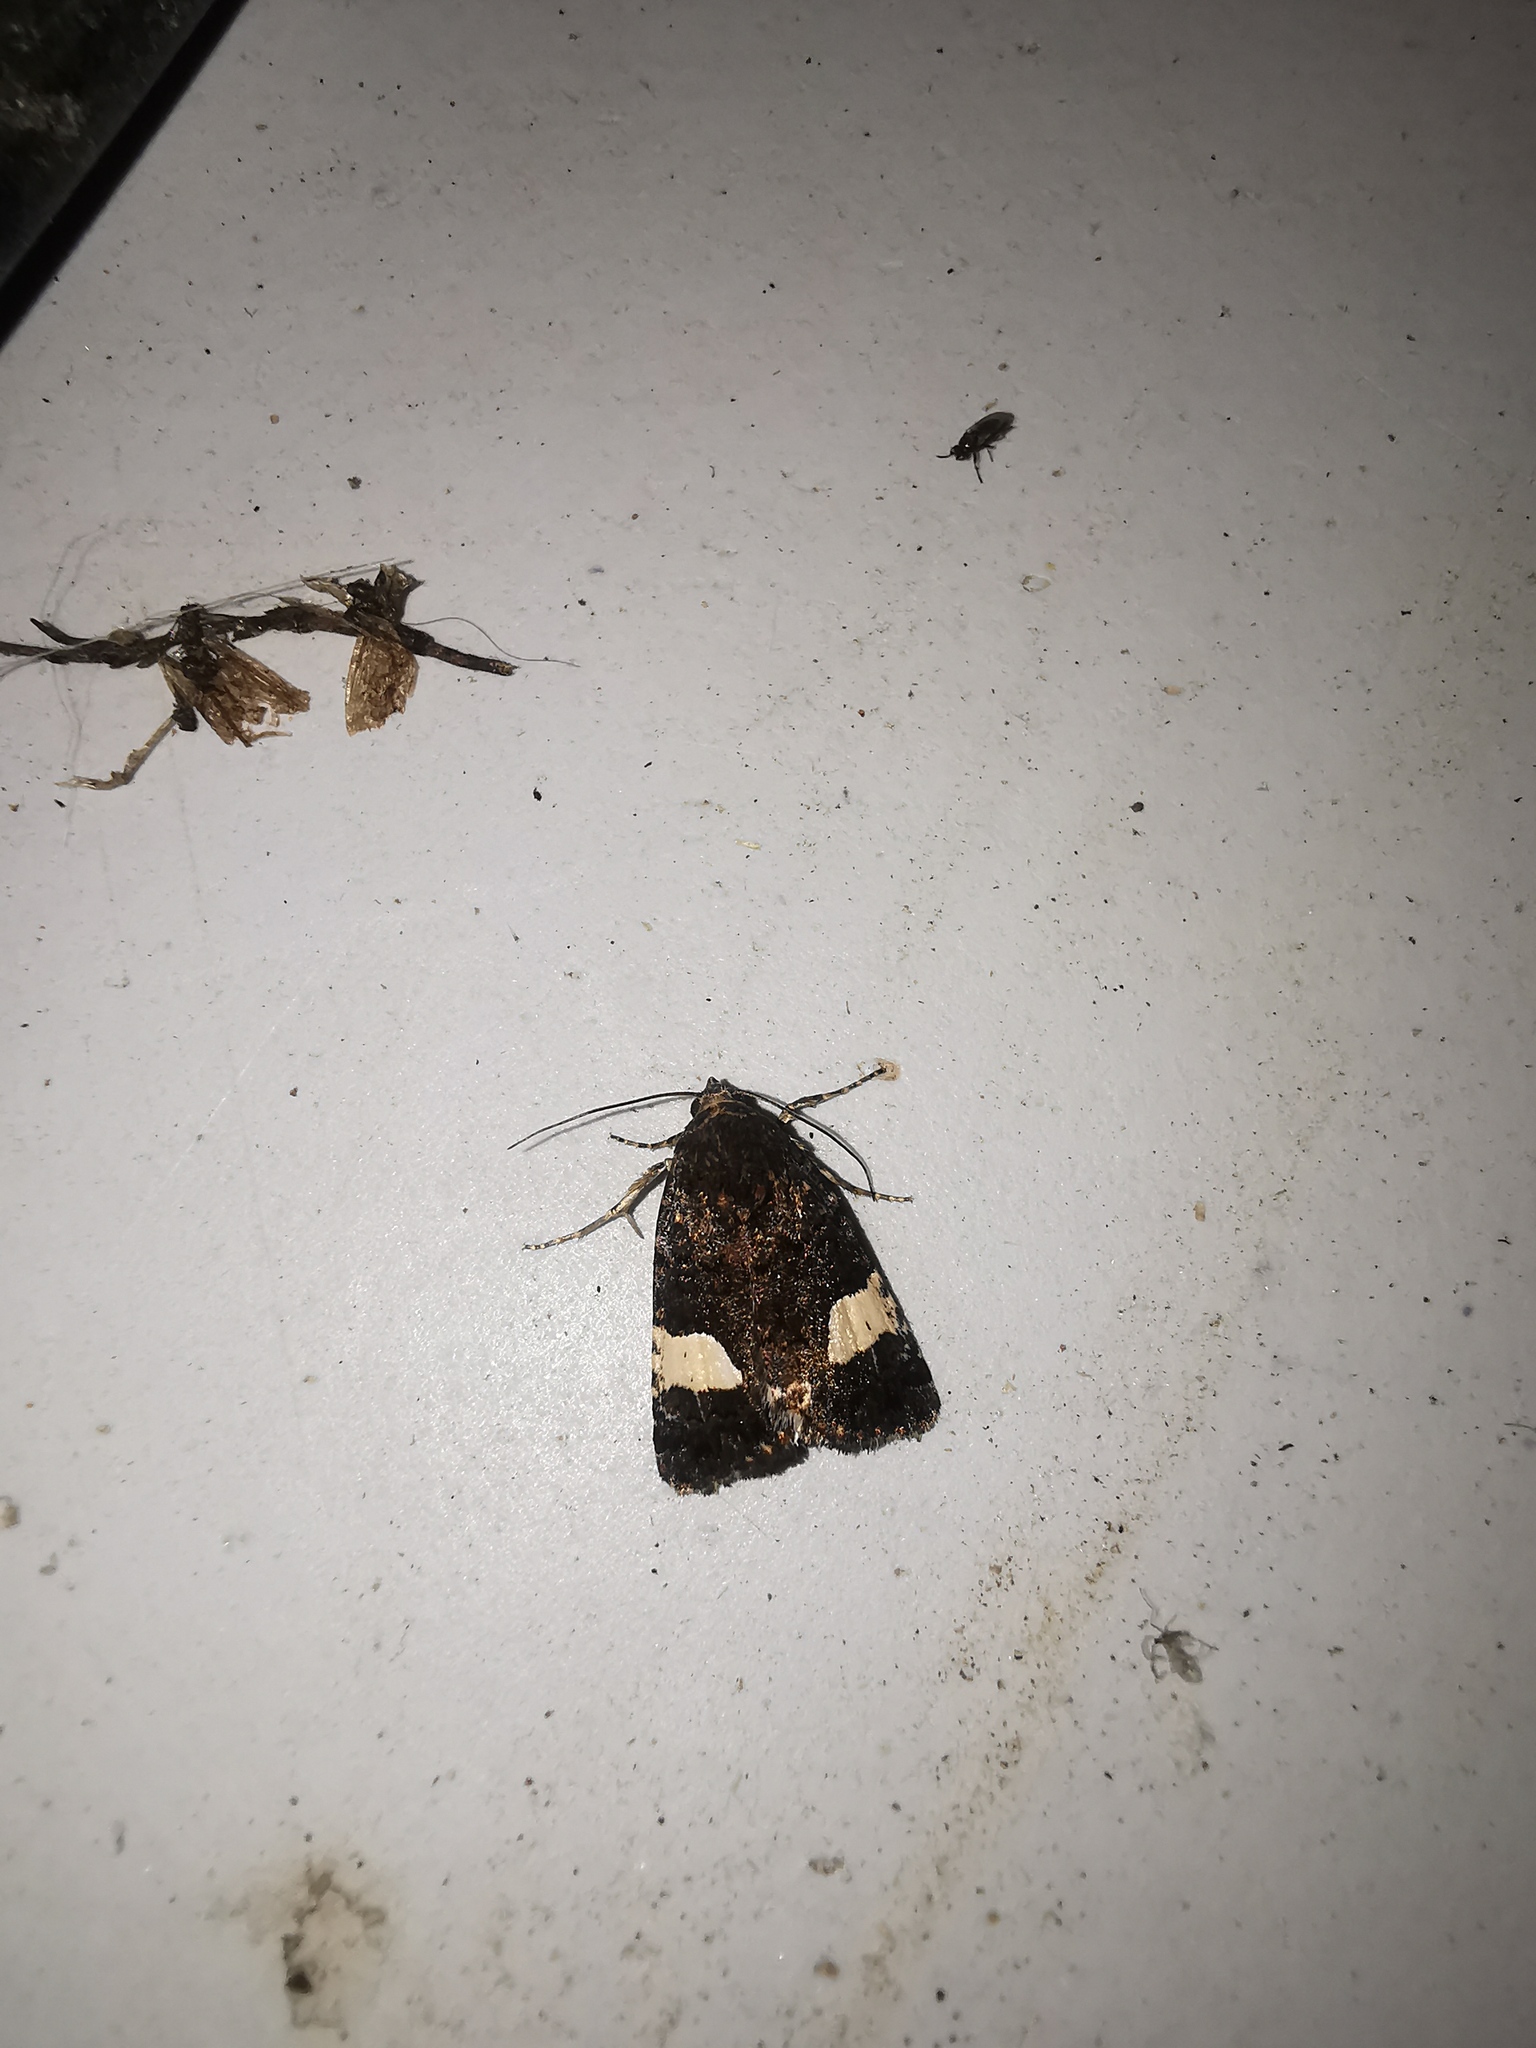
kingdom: Animalia
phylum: Arthropoda
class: Insecta
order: Lepidoptera
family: Erebidae
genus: Tyta
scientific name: Tyta luctuosa
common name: Four-spotted
